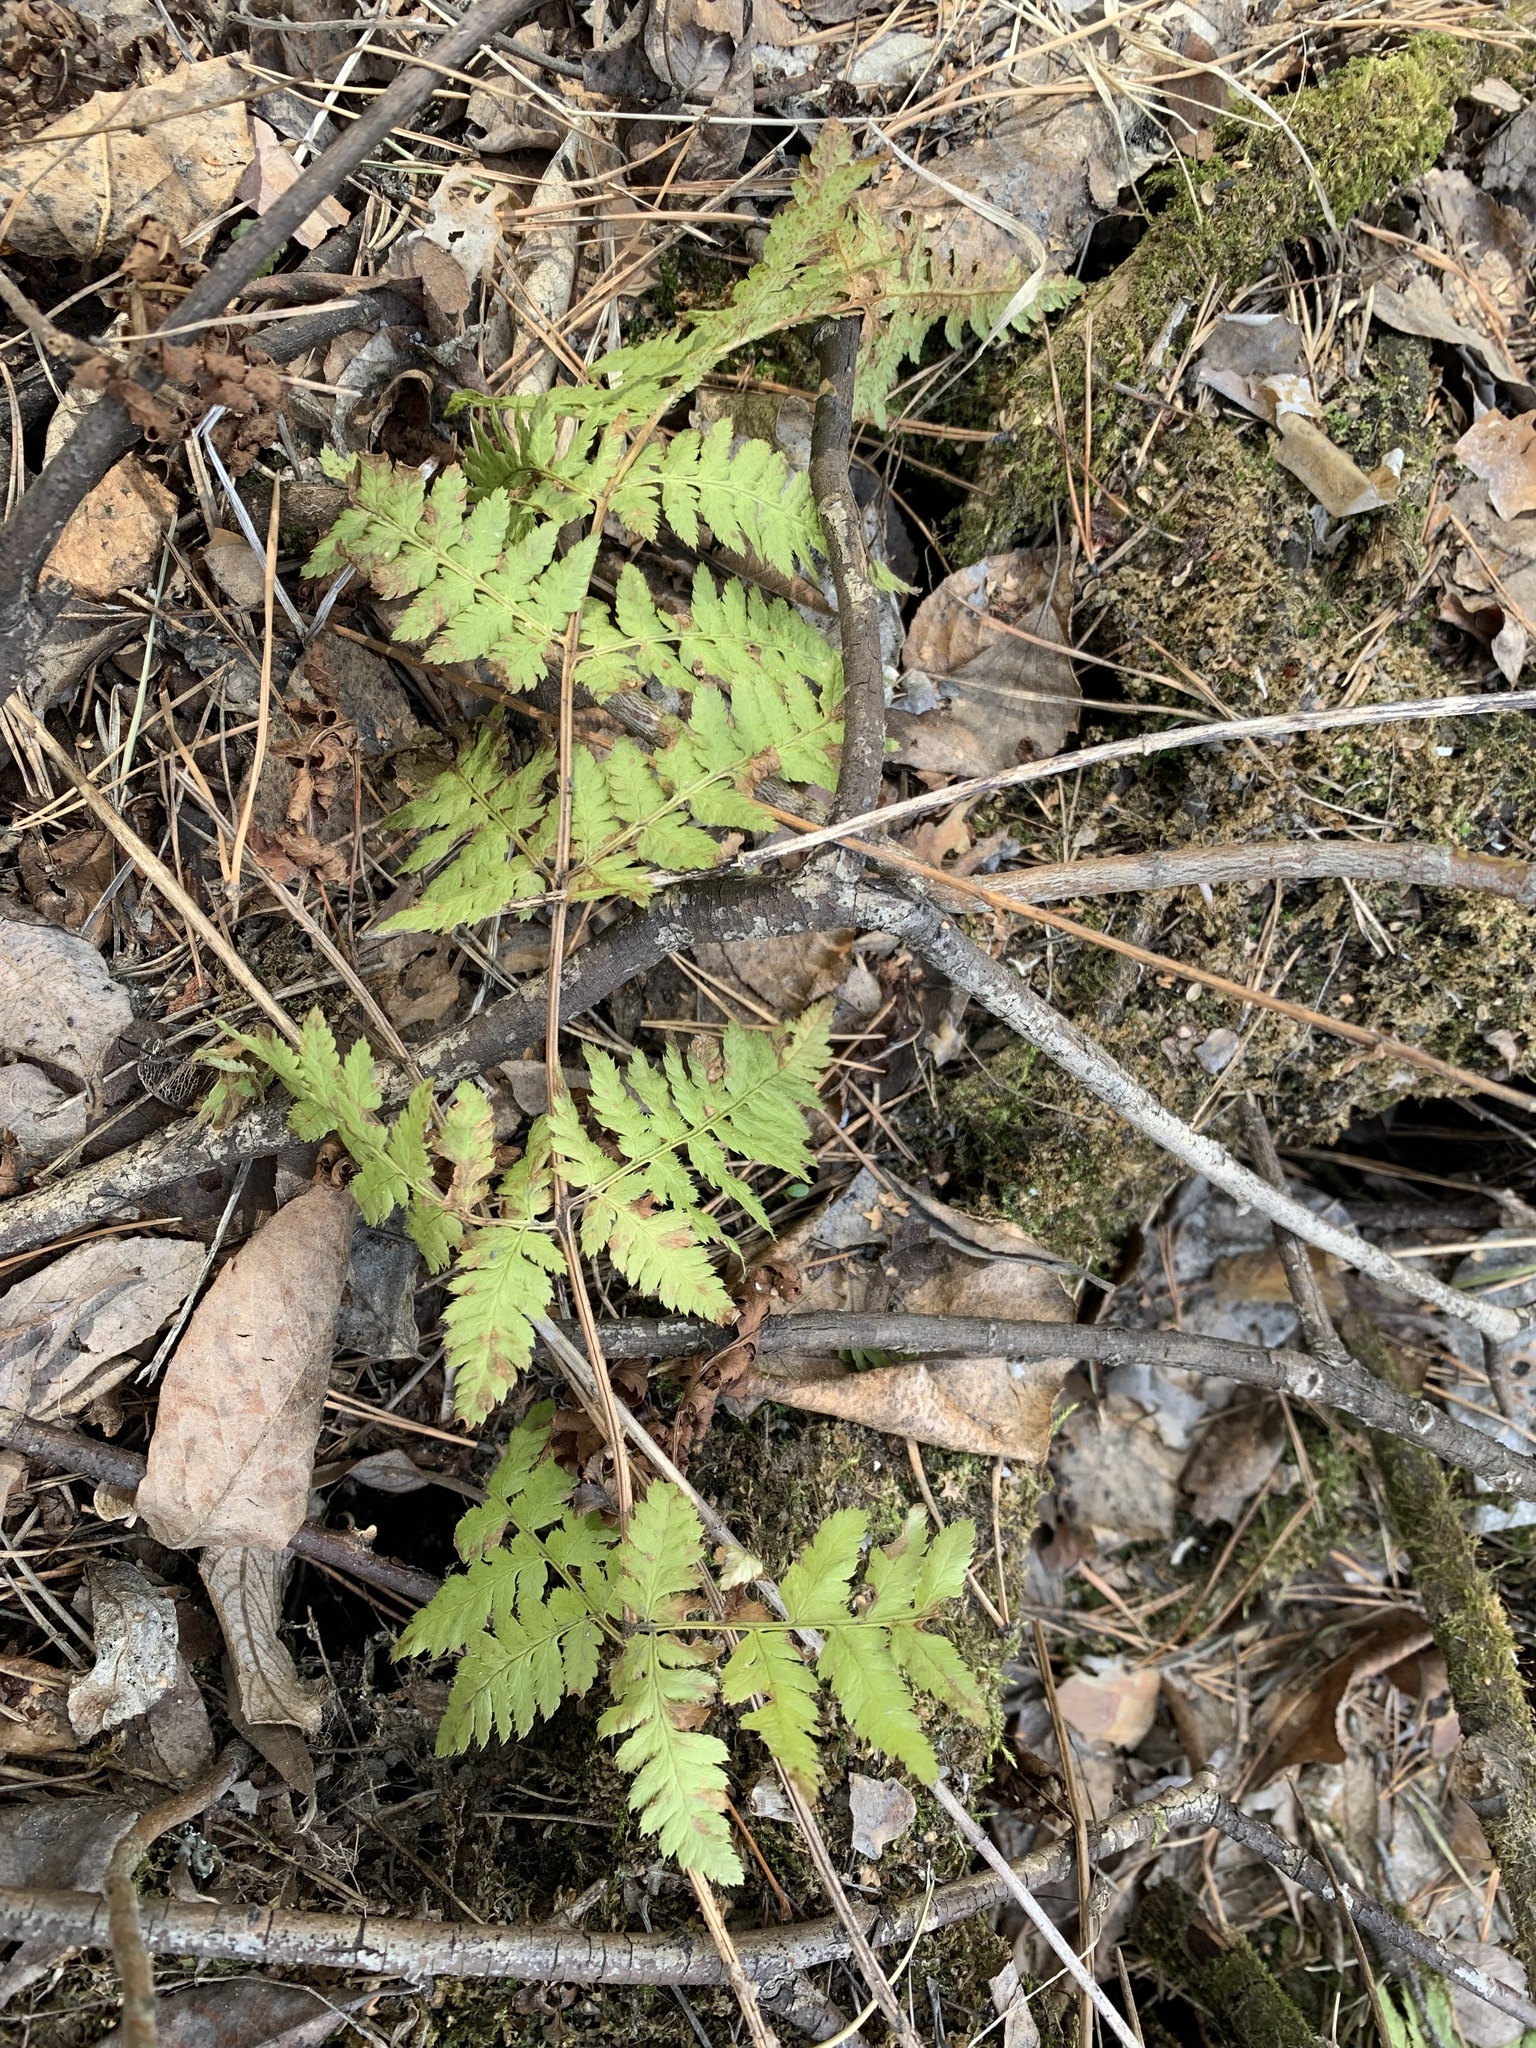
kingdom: Plantae
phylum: Tracheophyta
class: Polypodiopsida
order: Polypodiales
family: Dryopteridaceae
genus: Dryopteris
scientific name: Dryopteris carthusiana
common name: Narrow buckler-fern
